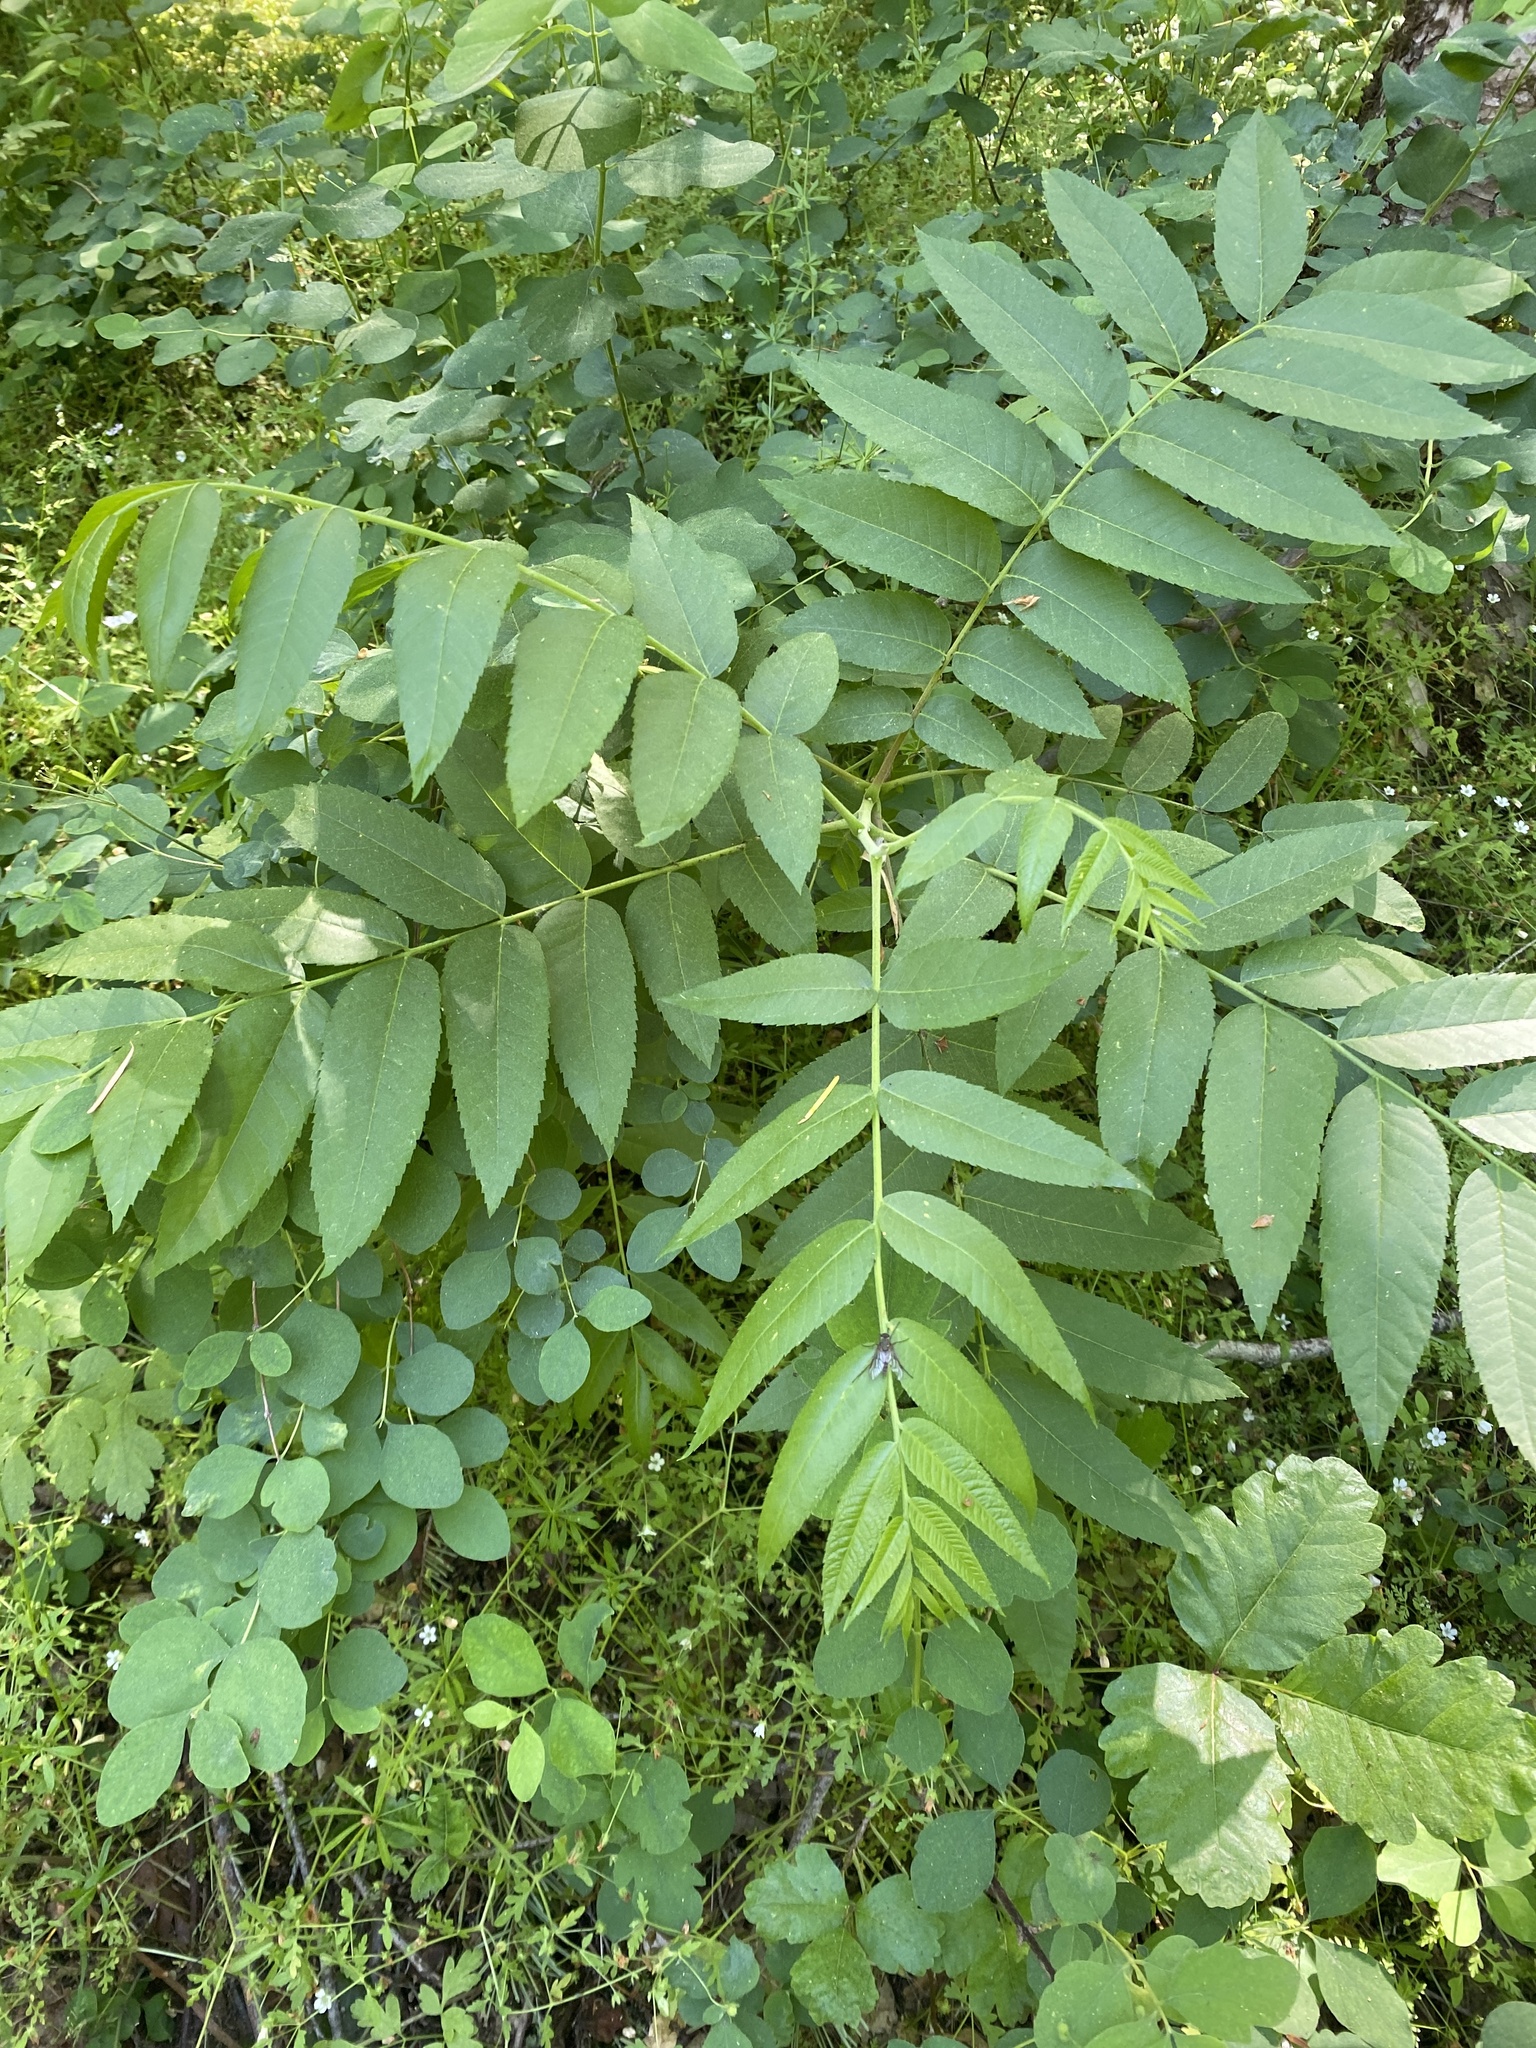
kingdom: Plantae
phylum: Tracheophyta
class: Magnoliopsida
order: Fagales
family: Juglandaceae
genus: Juglans
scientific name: Juglans hindsii
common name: Northern california black walnut
